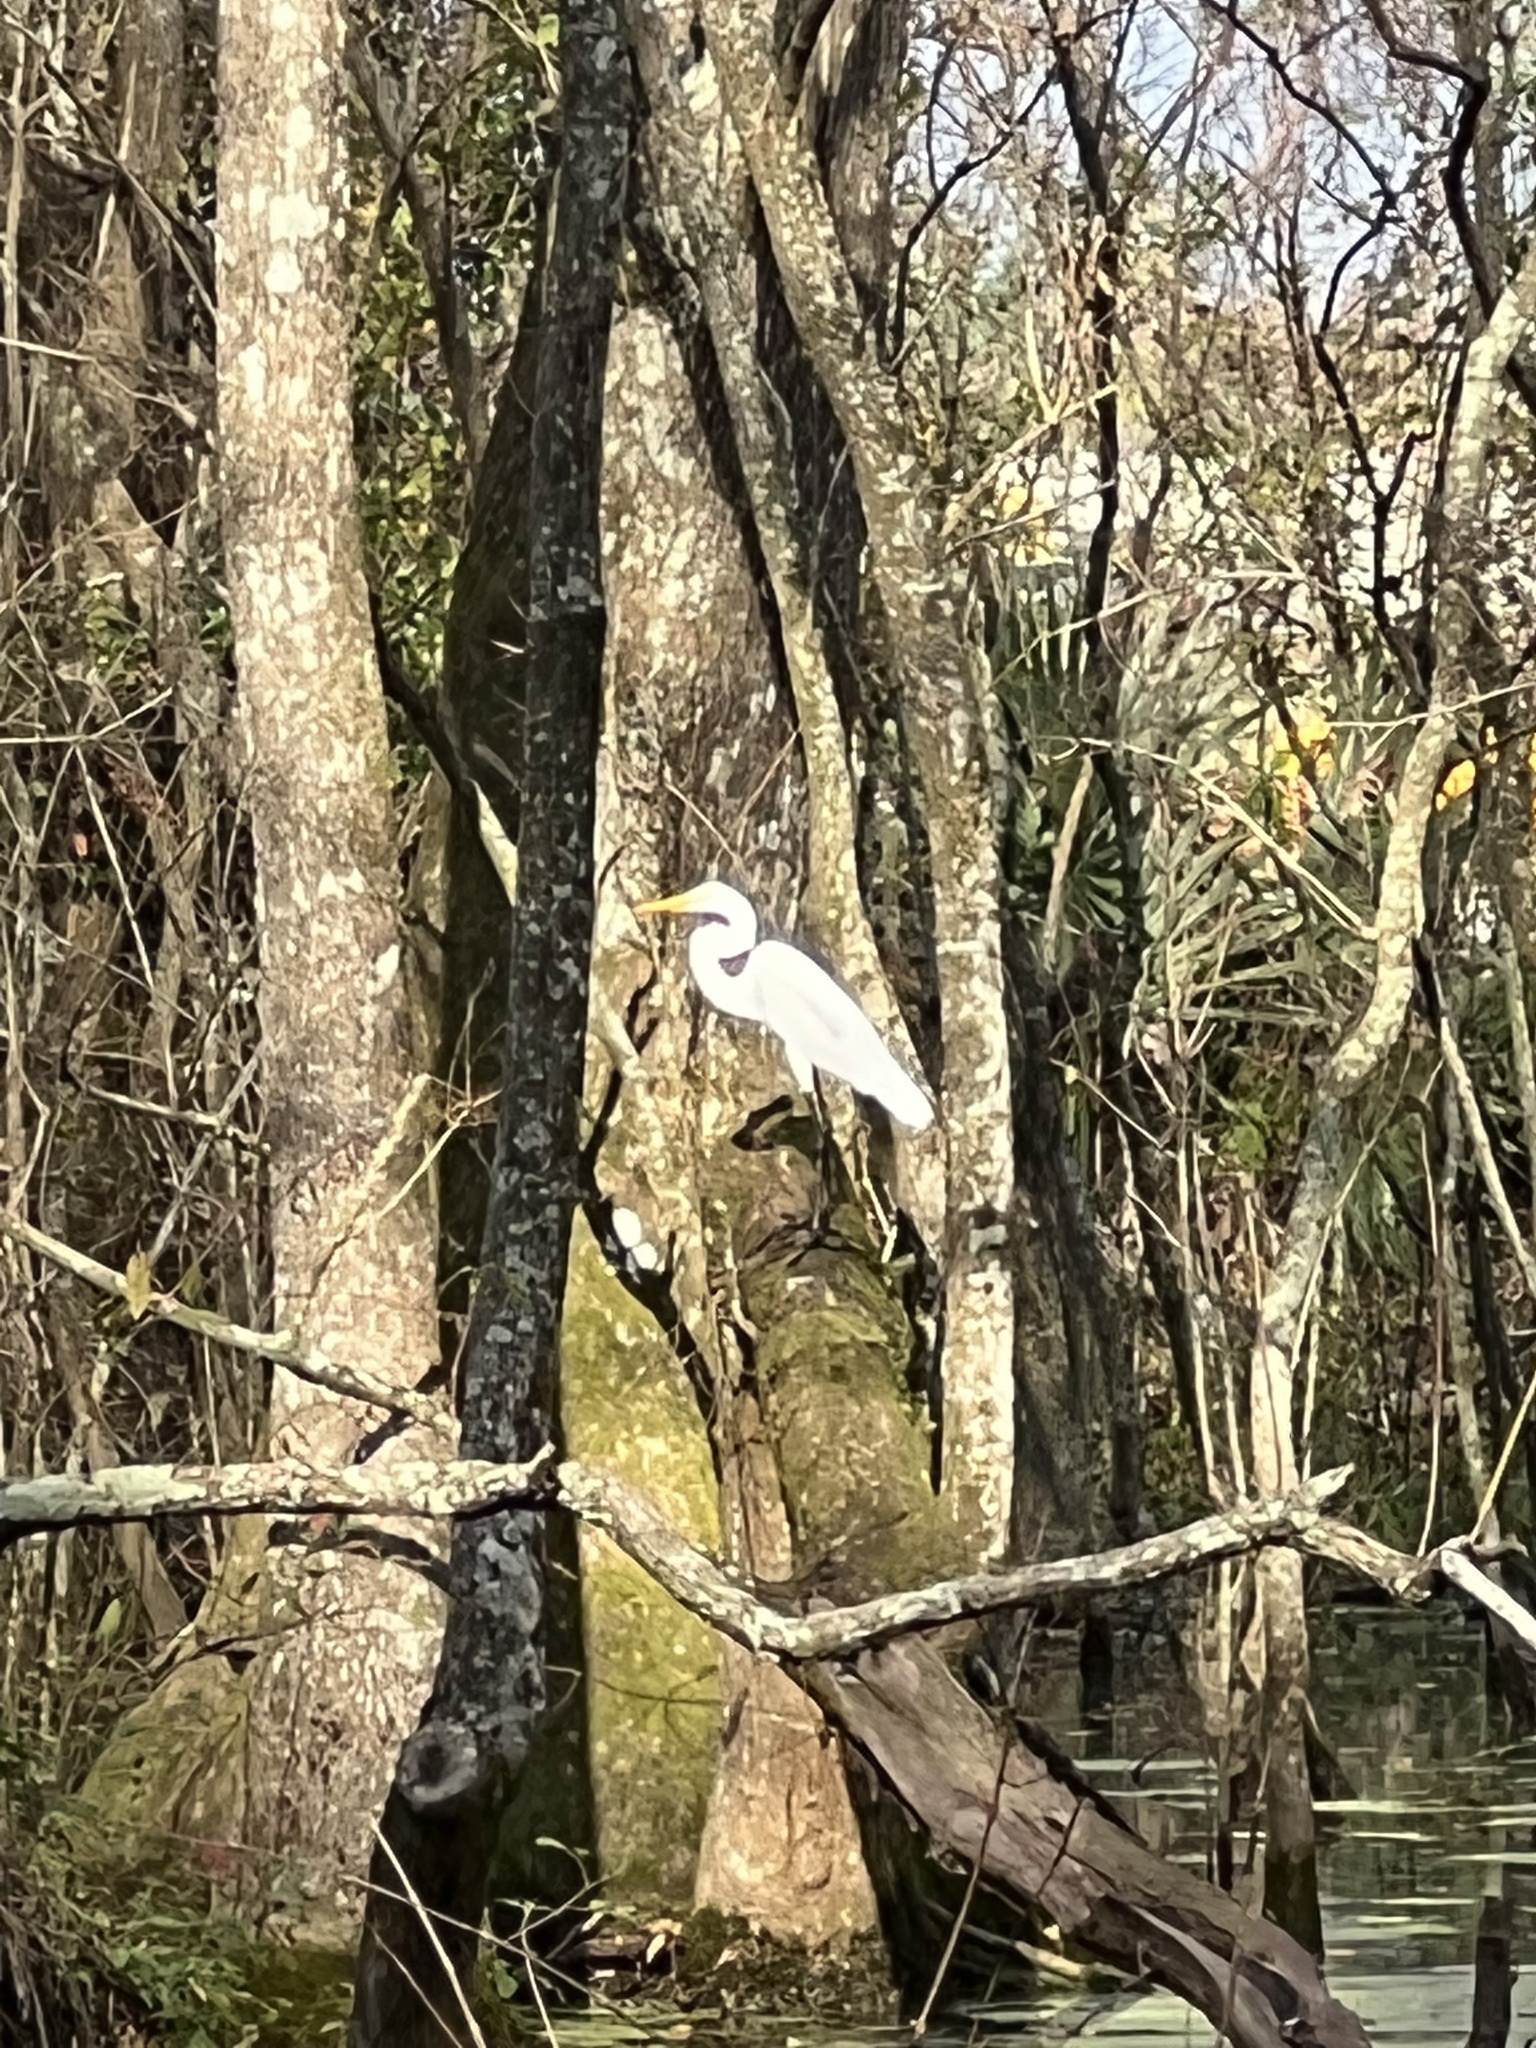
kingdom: Animalia
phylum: Chordata
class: Aves
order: Pelecaniformes
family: Ardeidae
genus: Ardea
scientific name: Ardea alba
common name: Great egret
